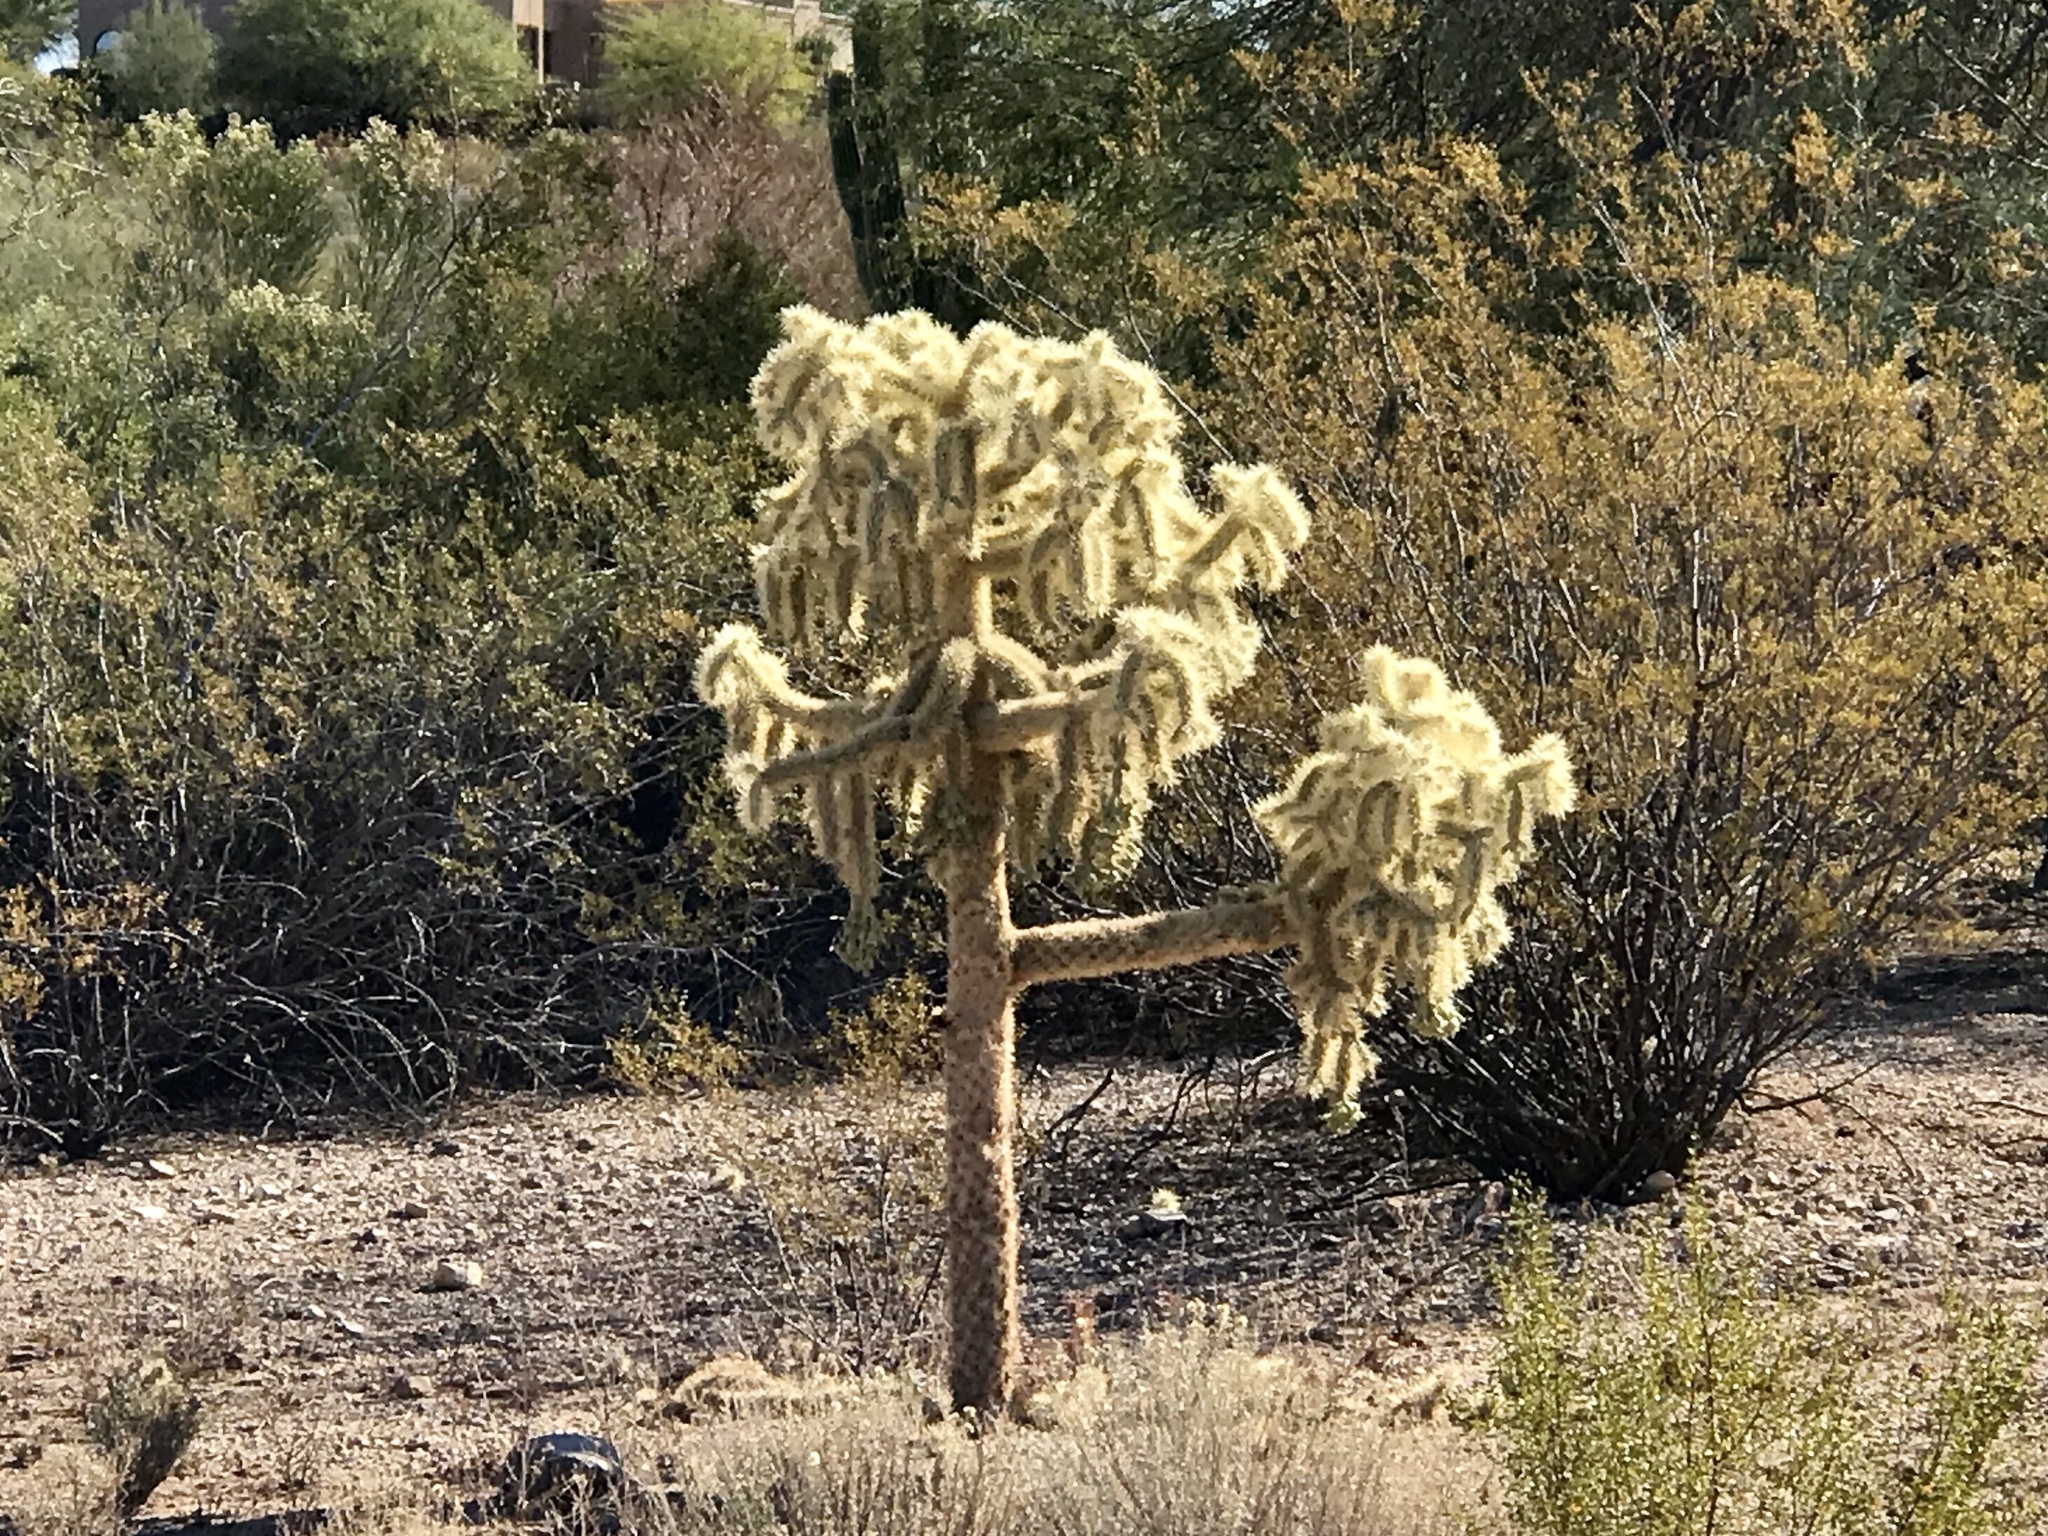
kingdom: Plantae
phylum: Tracheophyta
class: Magnoliopsida
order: Caryophyllales
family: Cactaceae
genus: Cylindropuntia
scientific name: Cylindropuntia fulgida
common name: Jumping cholla
